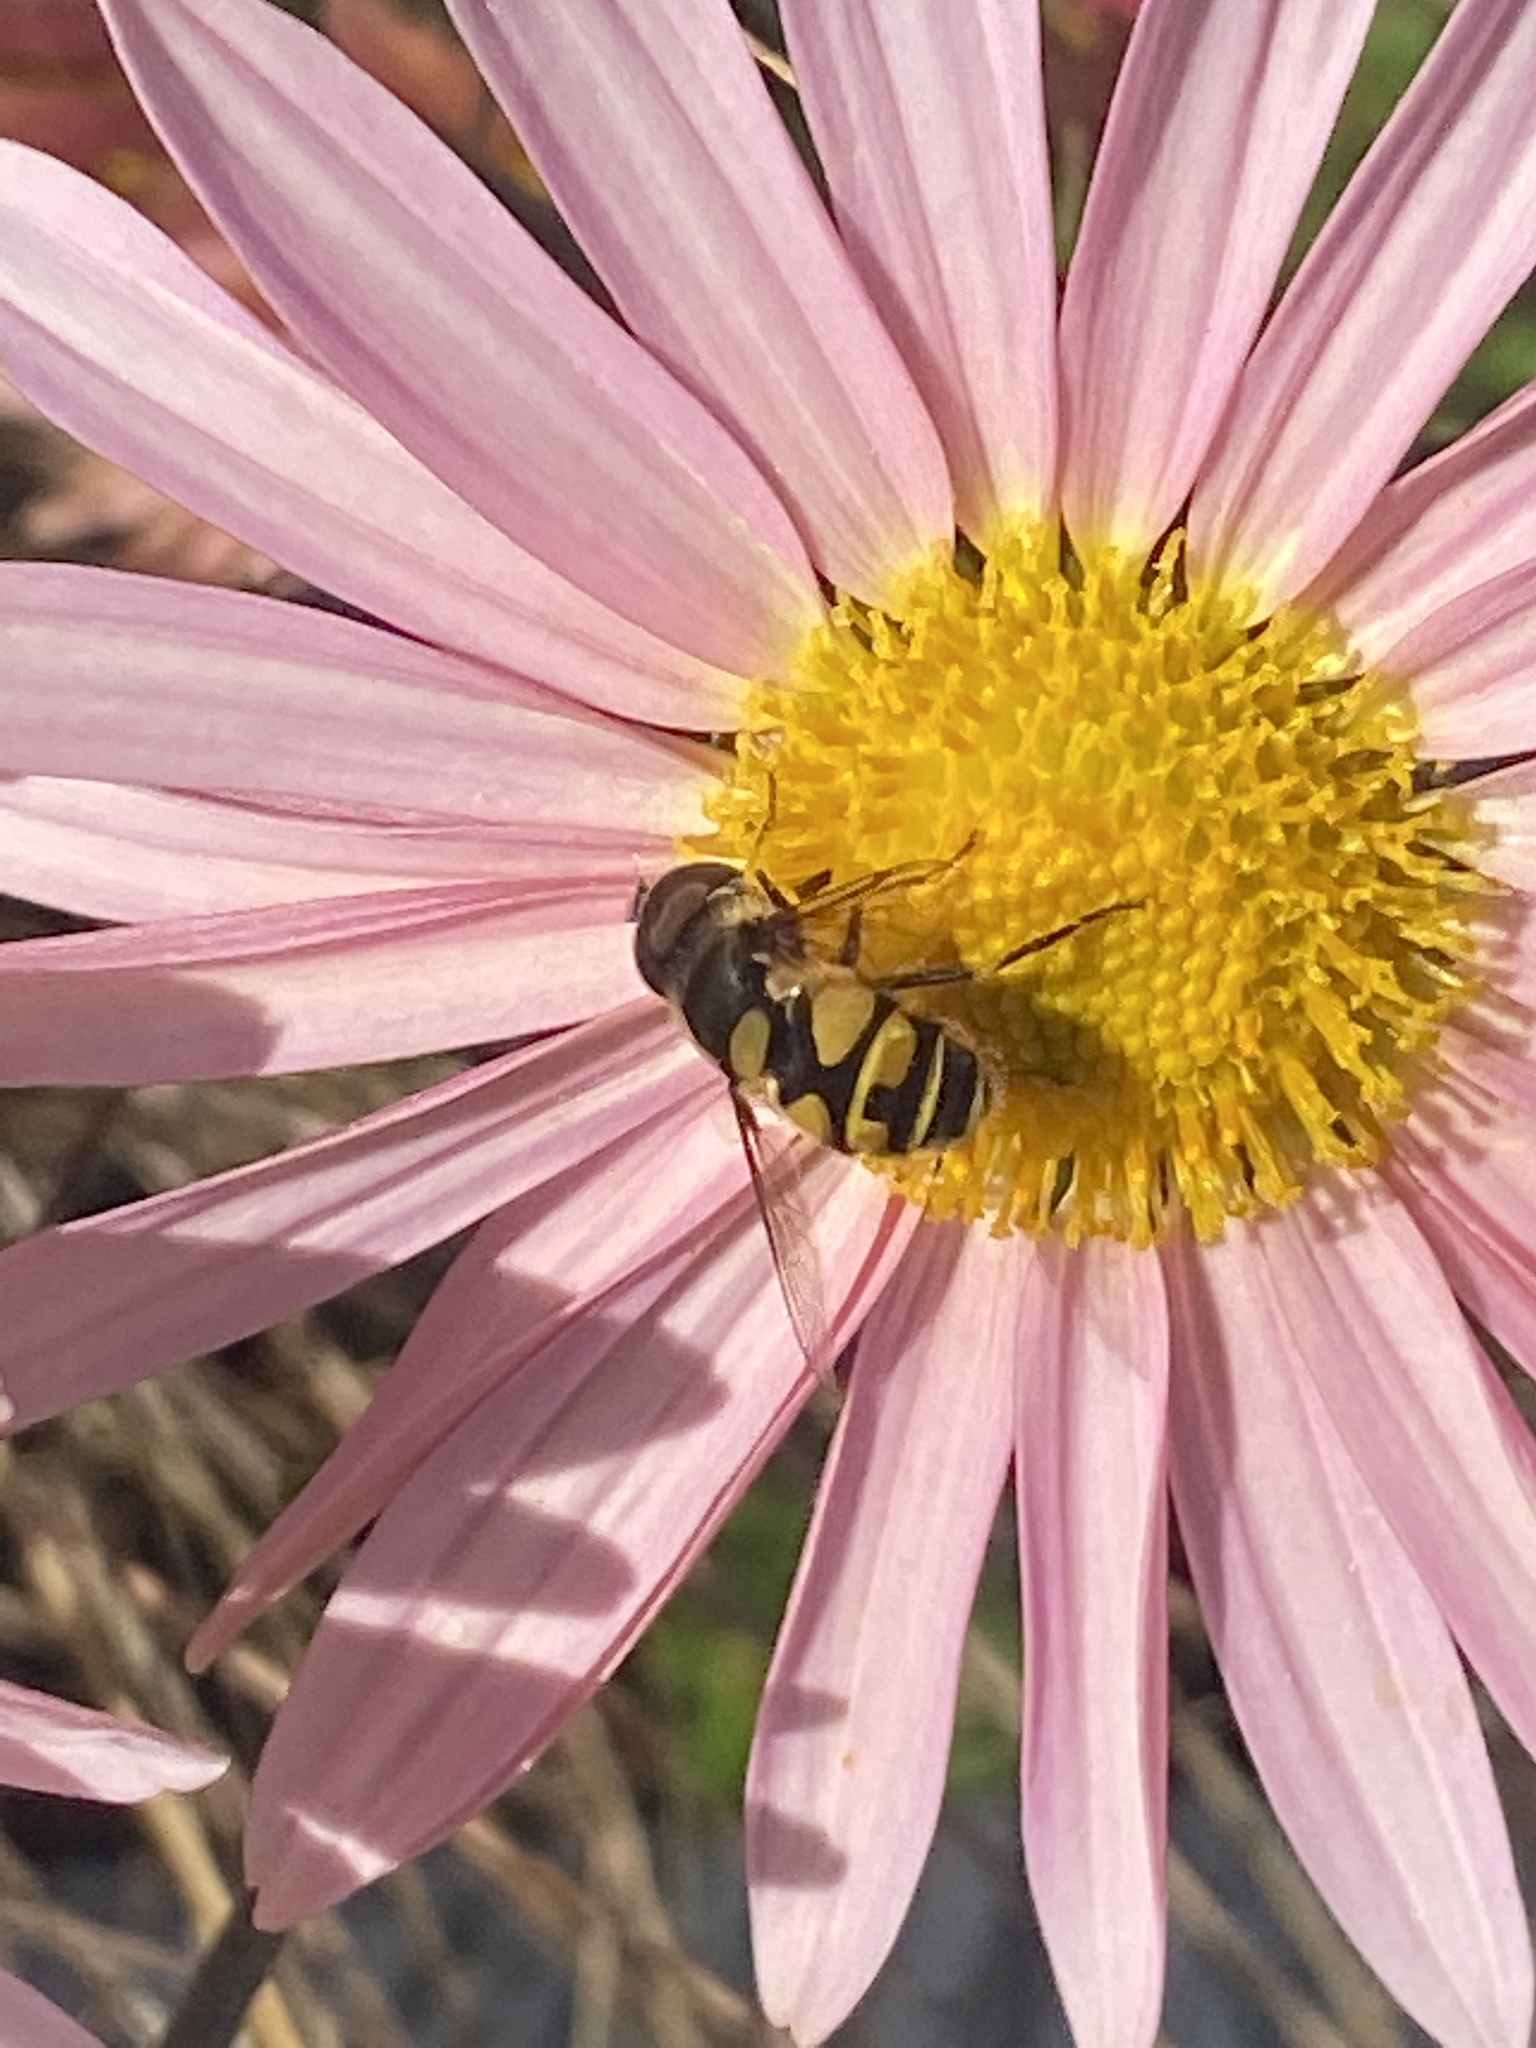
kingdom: Animalia
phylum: Arthropoda
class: Insecta
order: Diptera
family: Syrphidae
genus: Eristalis
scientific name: Eristalis transversa
